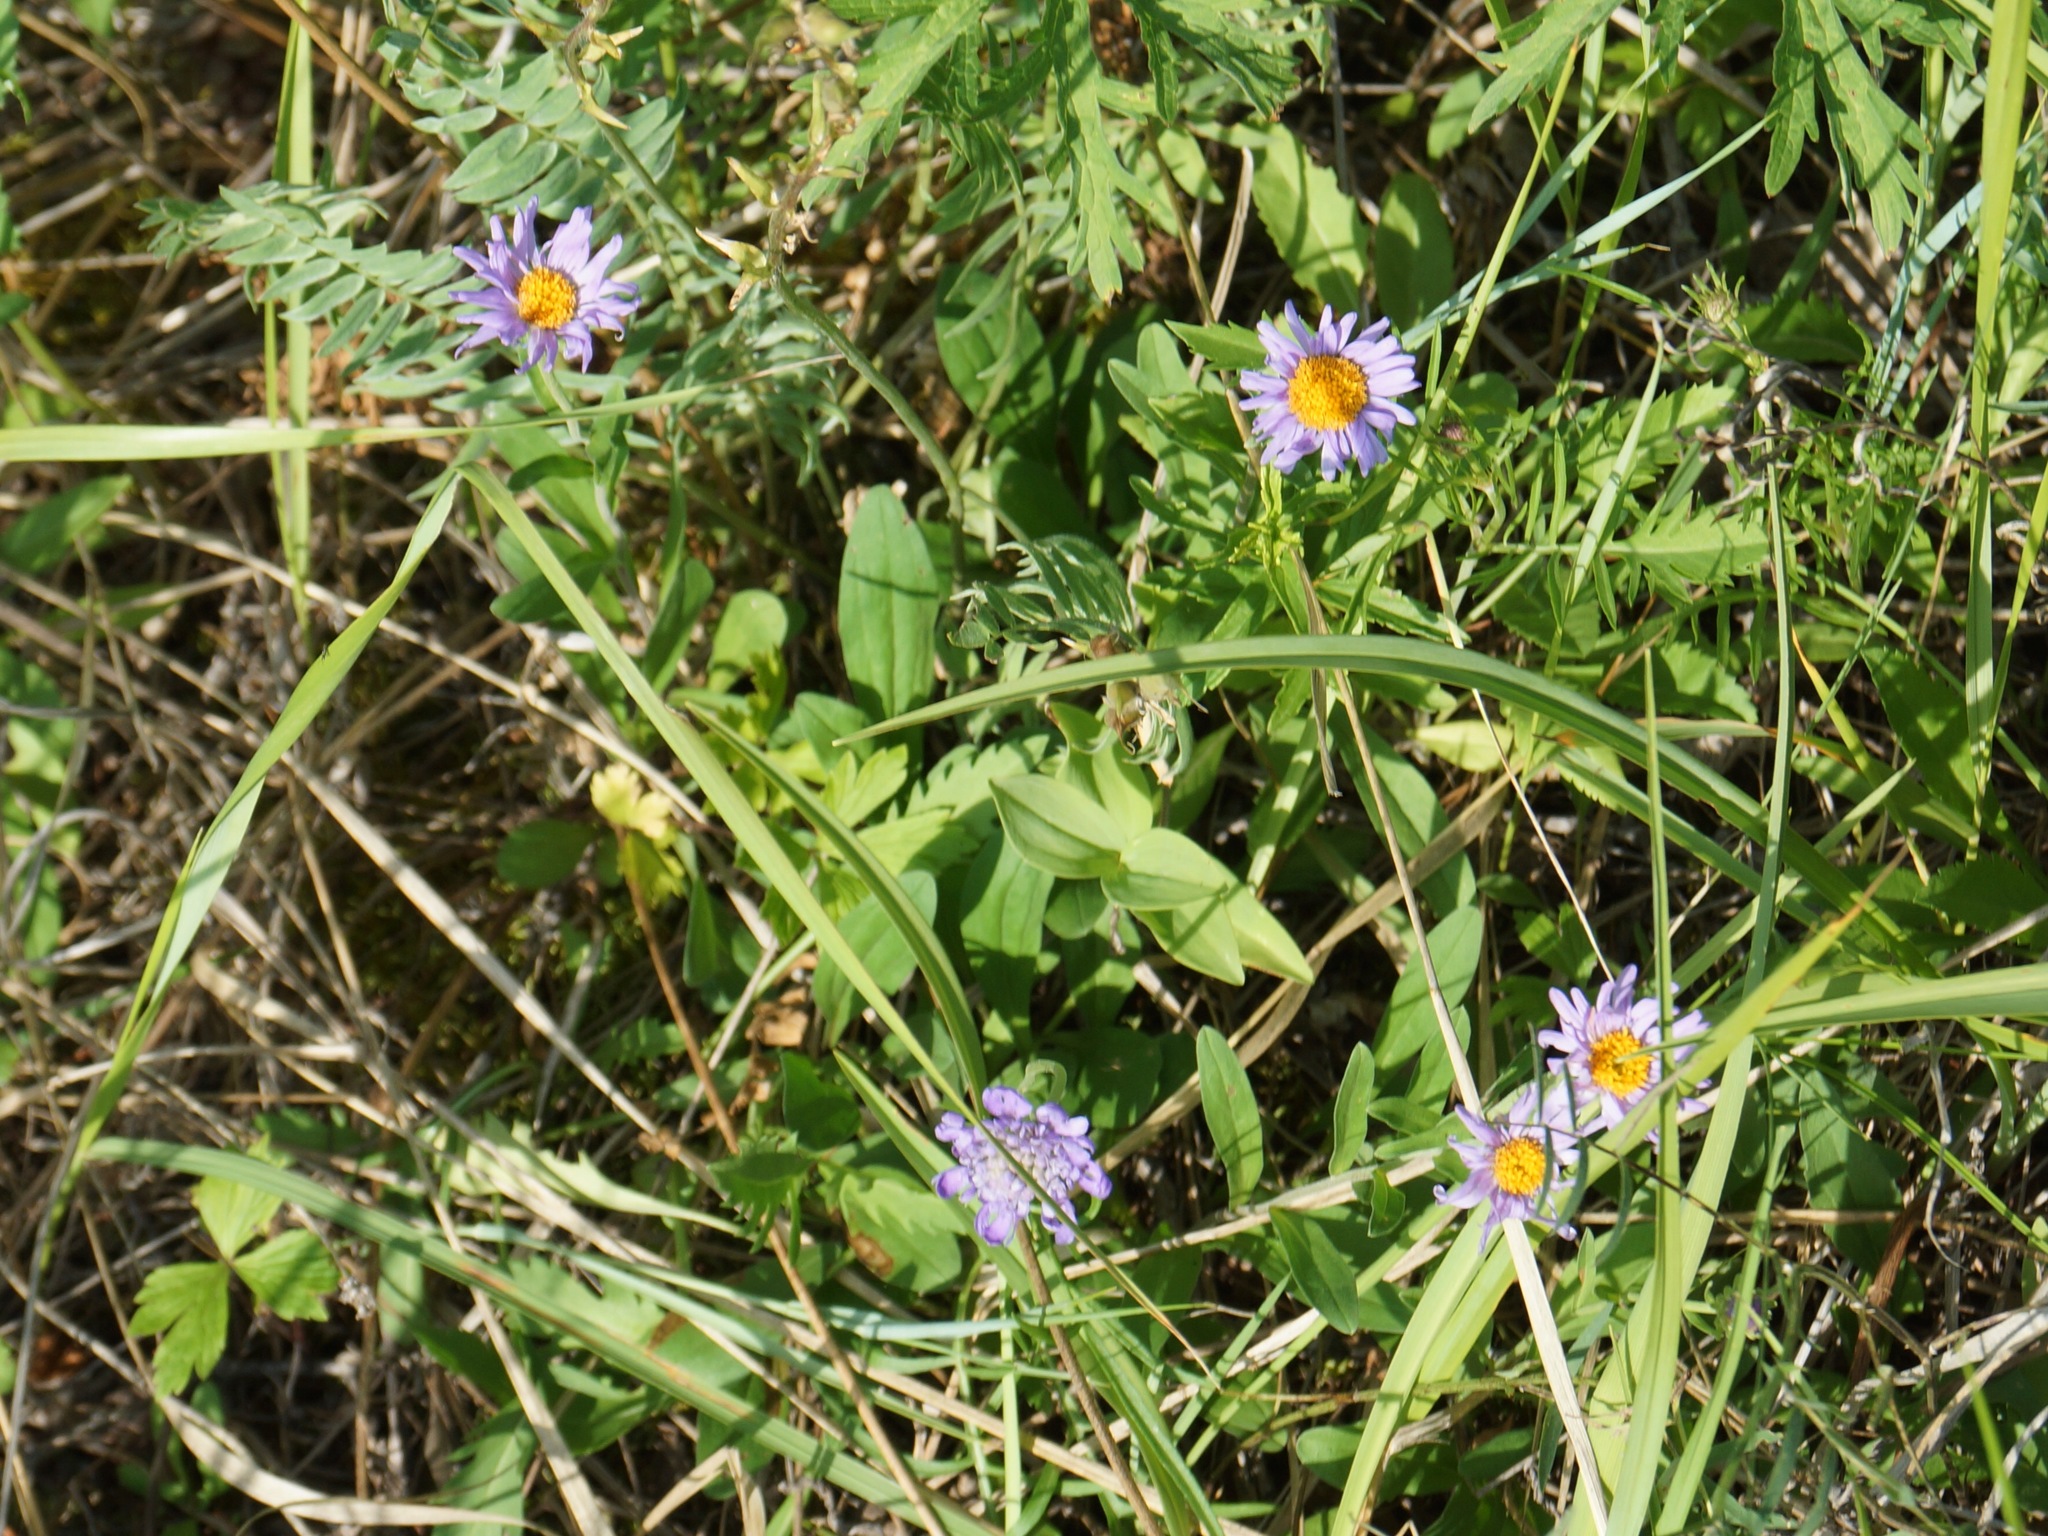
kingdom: Plantae
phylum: Tracheophyta
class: Magnoliopsida
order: Asterales
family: Asteraceae
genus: Aster
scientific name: Aster alpinus
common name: Alpine aster
